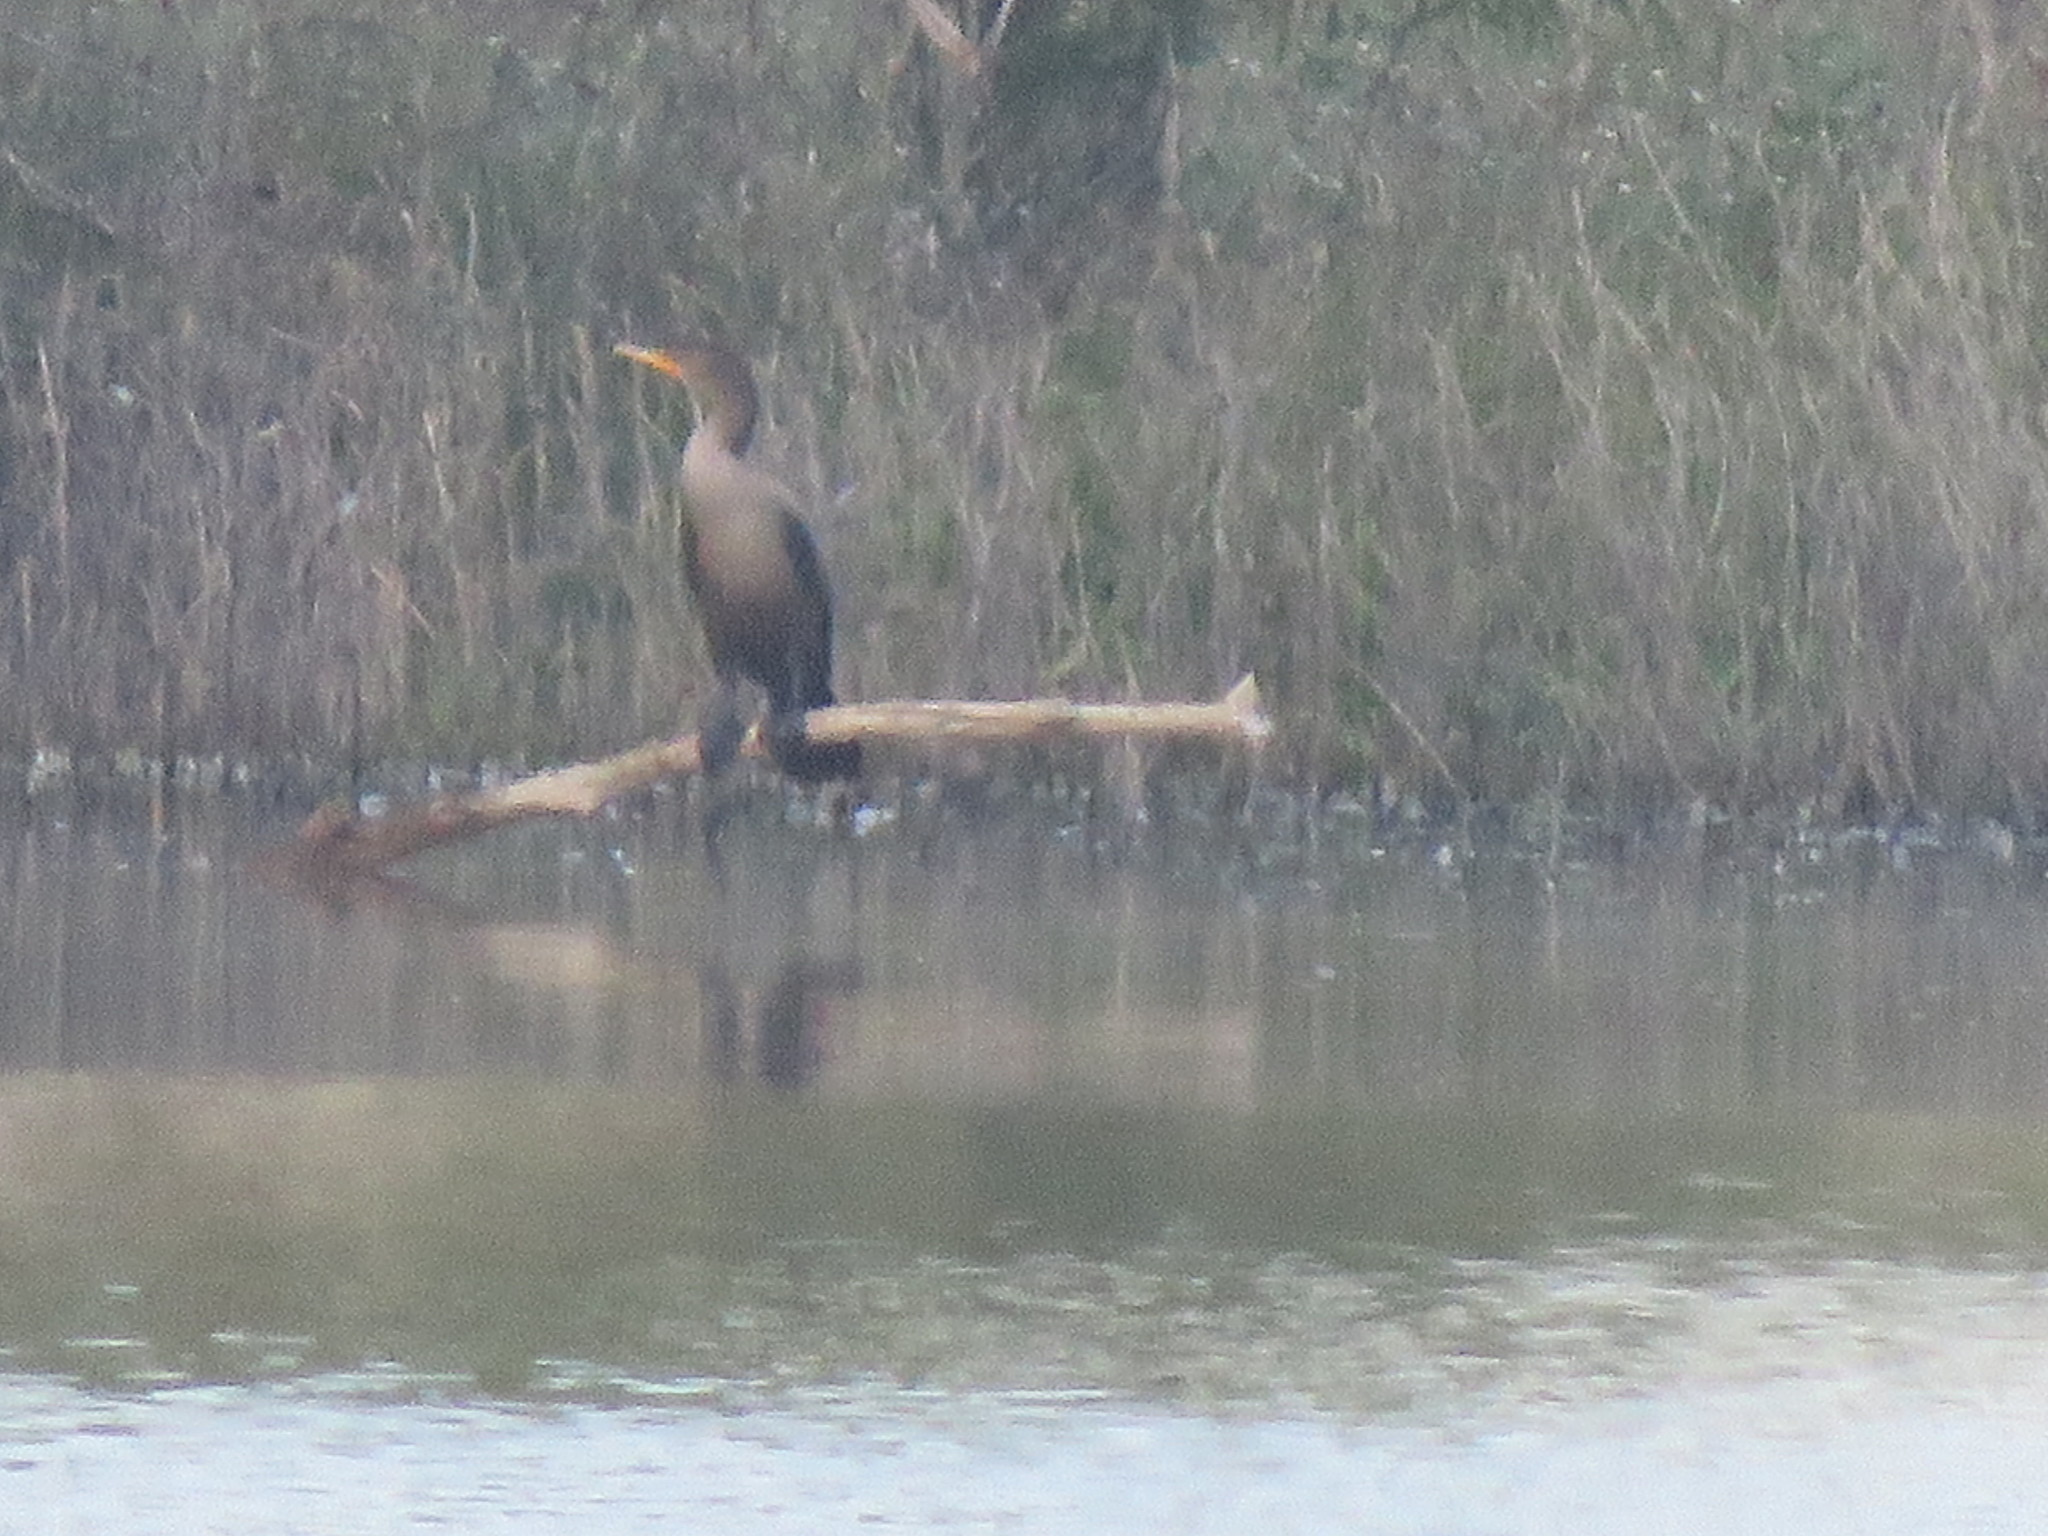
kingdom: Animalia
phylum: Chordata
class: Aves
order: Suliformes
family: Phalacrocoracidae
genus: Phalacrocorax
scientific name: Phalacrocorax auritus
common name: Double-crested cormorant
